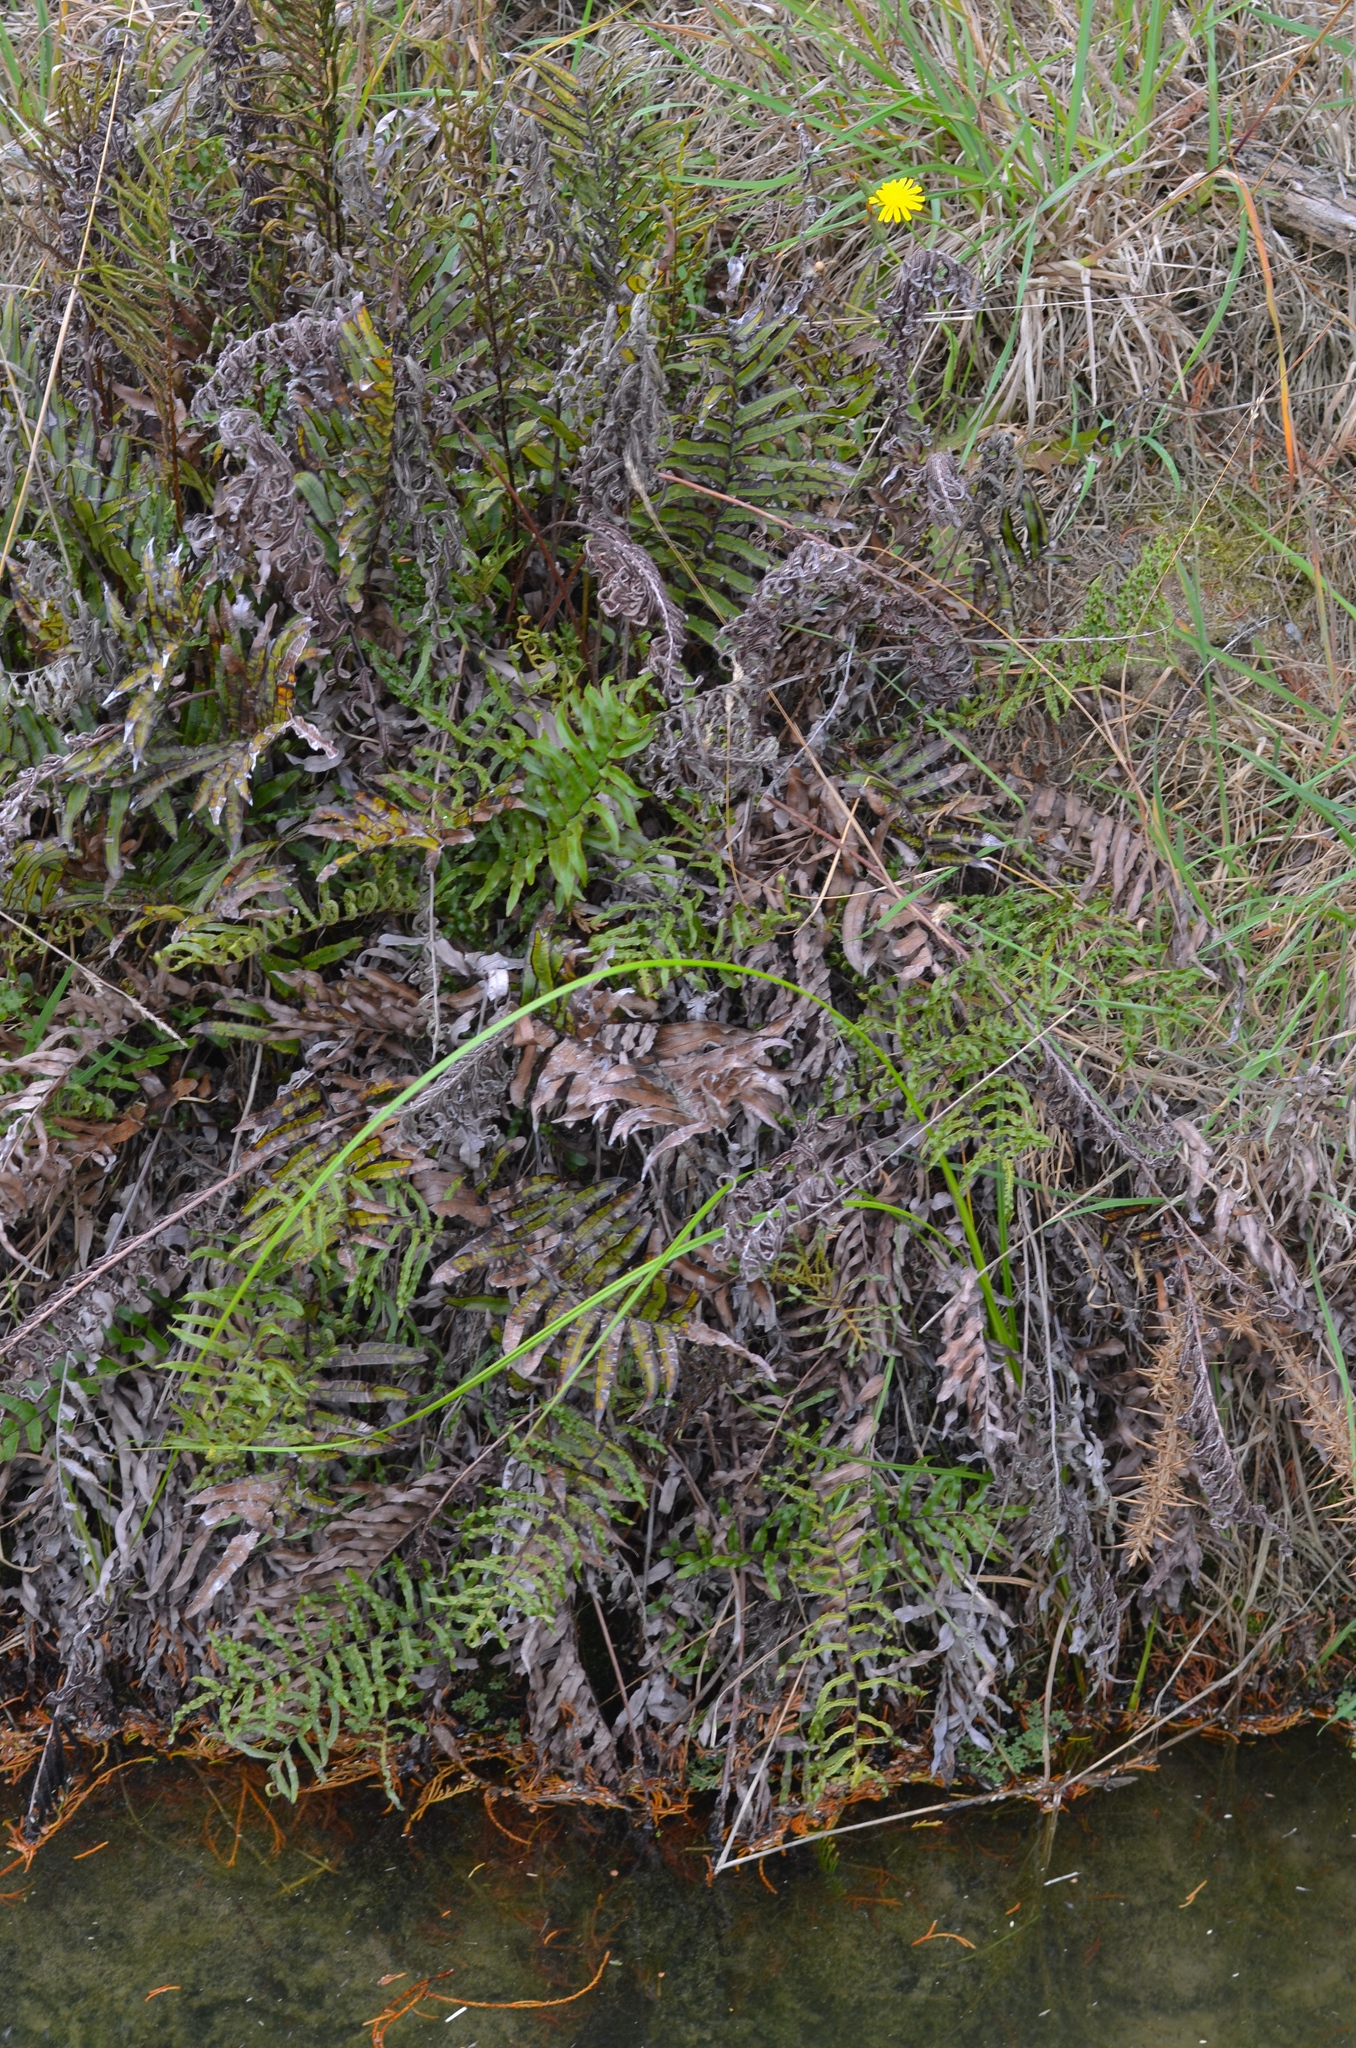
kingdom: Plantae
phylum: Tracheophyta
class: Polypodiopsida
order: Polypodiales
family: Blechnaceae
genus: Parablechnum
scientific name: Parablechnum minus
